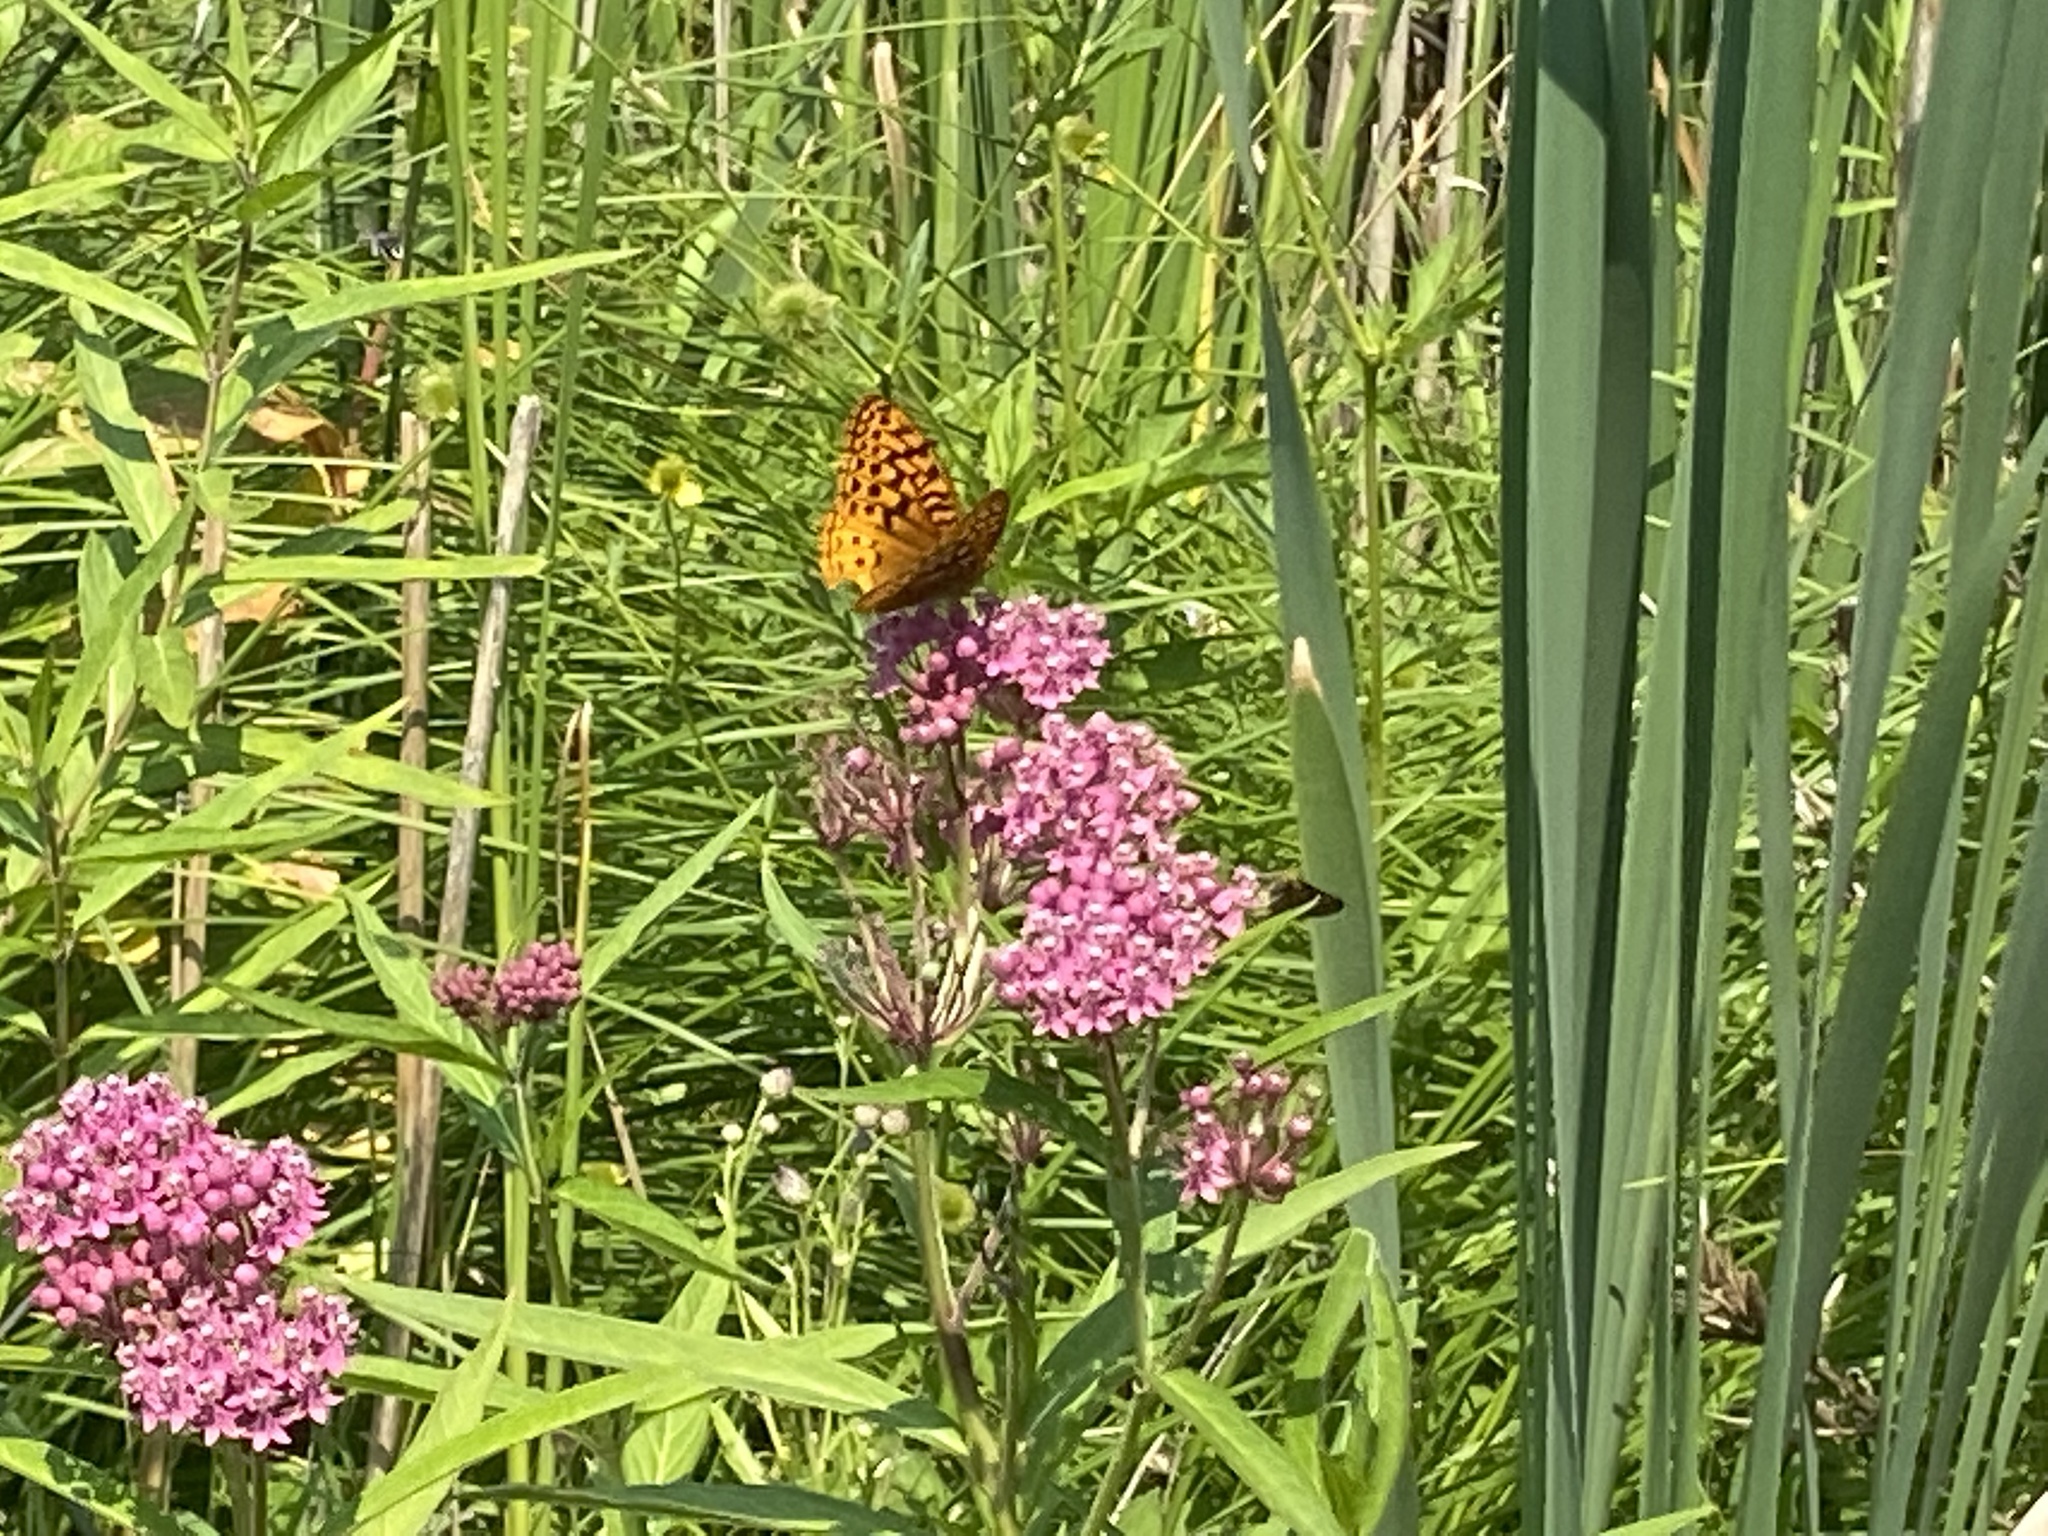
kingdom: Animalia
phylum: Arthropoda
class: Insecta
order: Lepidoptera
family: Nymphalidae
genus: Speyeria
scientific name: Speyeria cybele
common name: Great spangled fritillary
